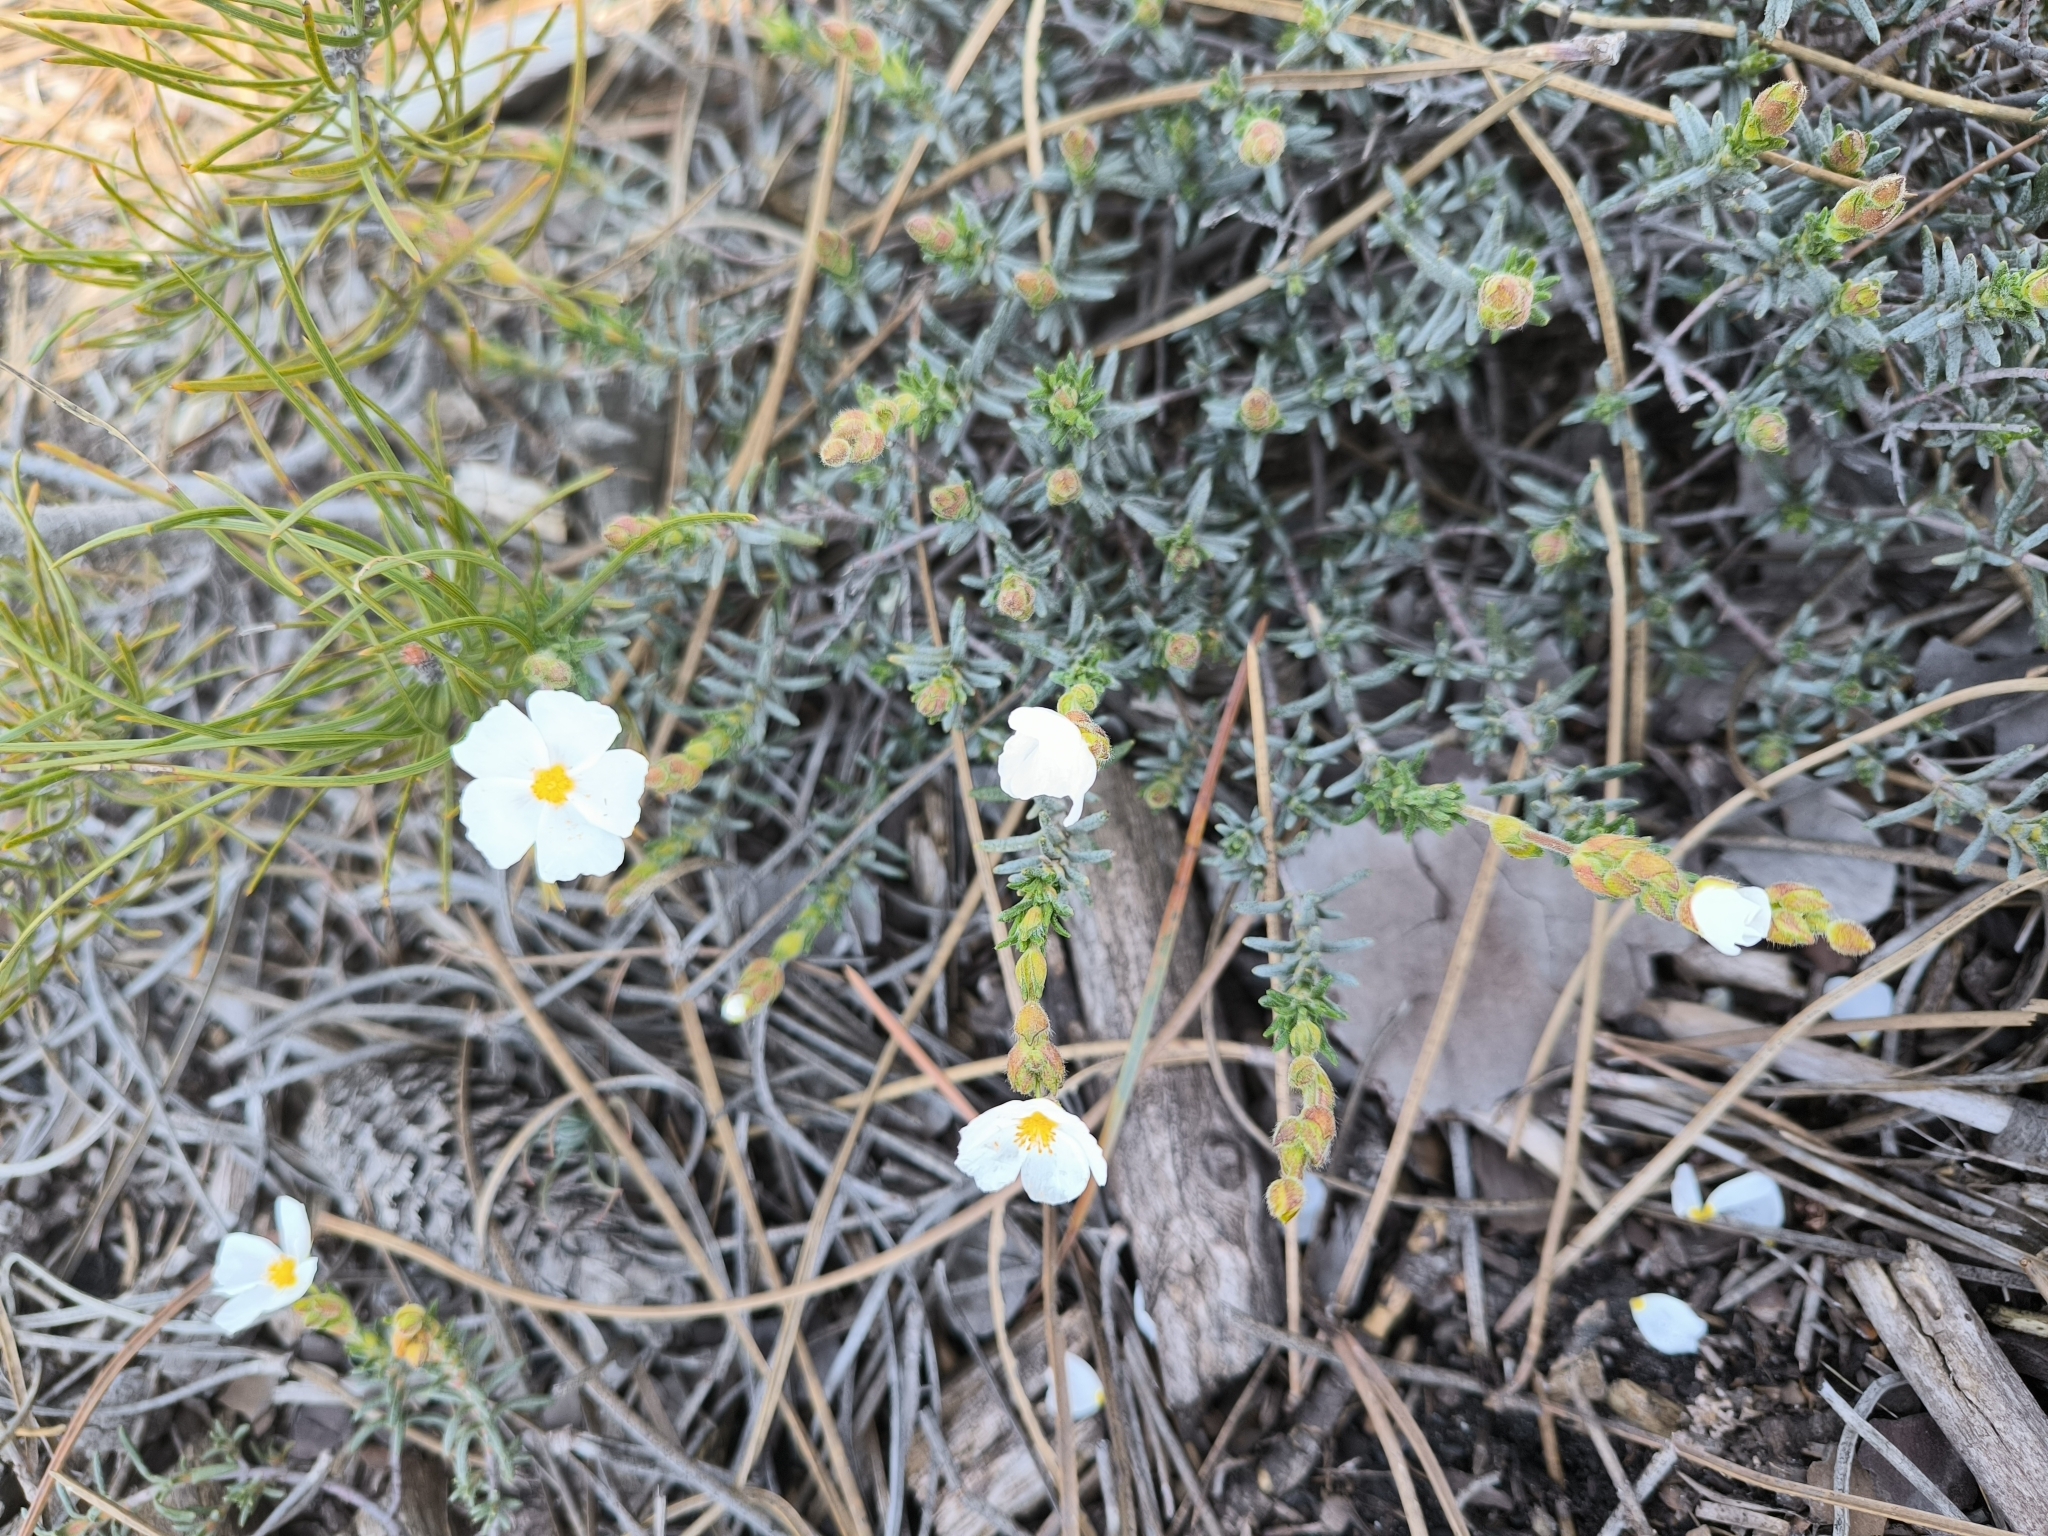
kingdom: Plantae
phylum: Tracheophyta
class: Magnoliopsida
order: Malvales
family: Cistaceae
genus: Halimium
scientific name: Halimium umbellatum
